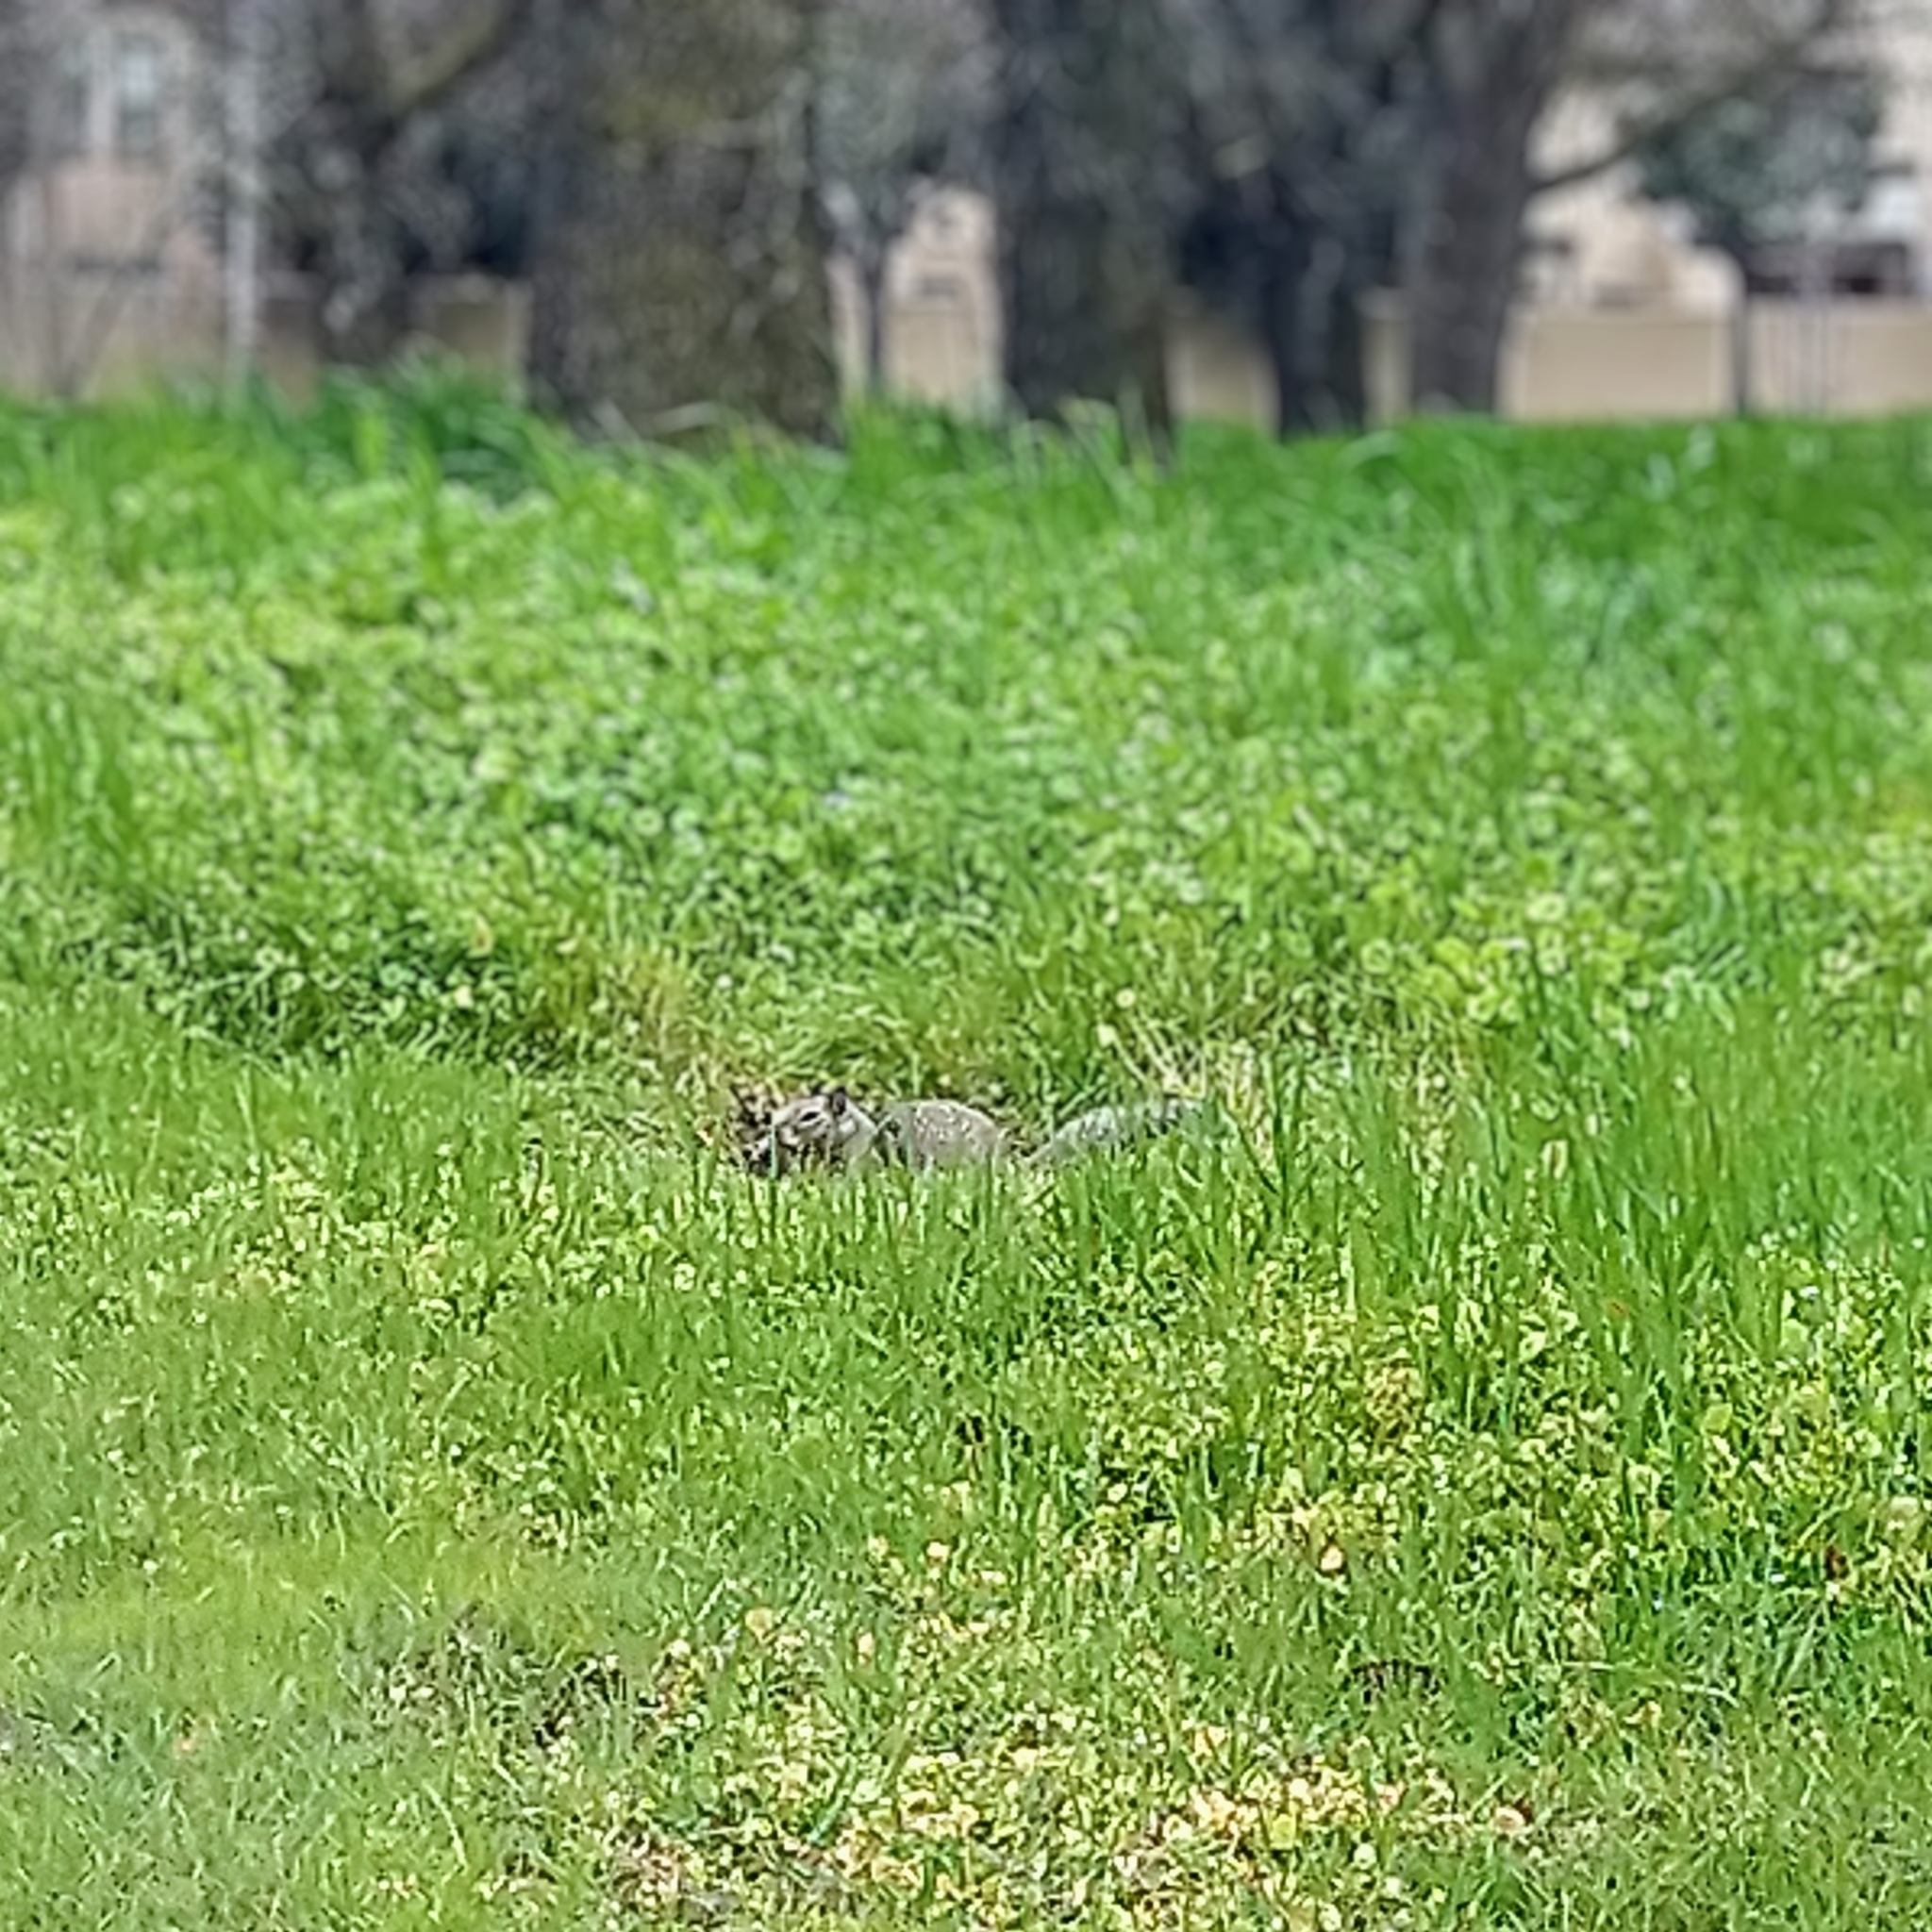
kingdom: Animalia
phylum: Chordata
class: Mammalia
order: Rodentia
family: Sciuridae
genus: Otospermophilus
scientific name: Otospermophilus beecheyi
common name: California ground squirrel
